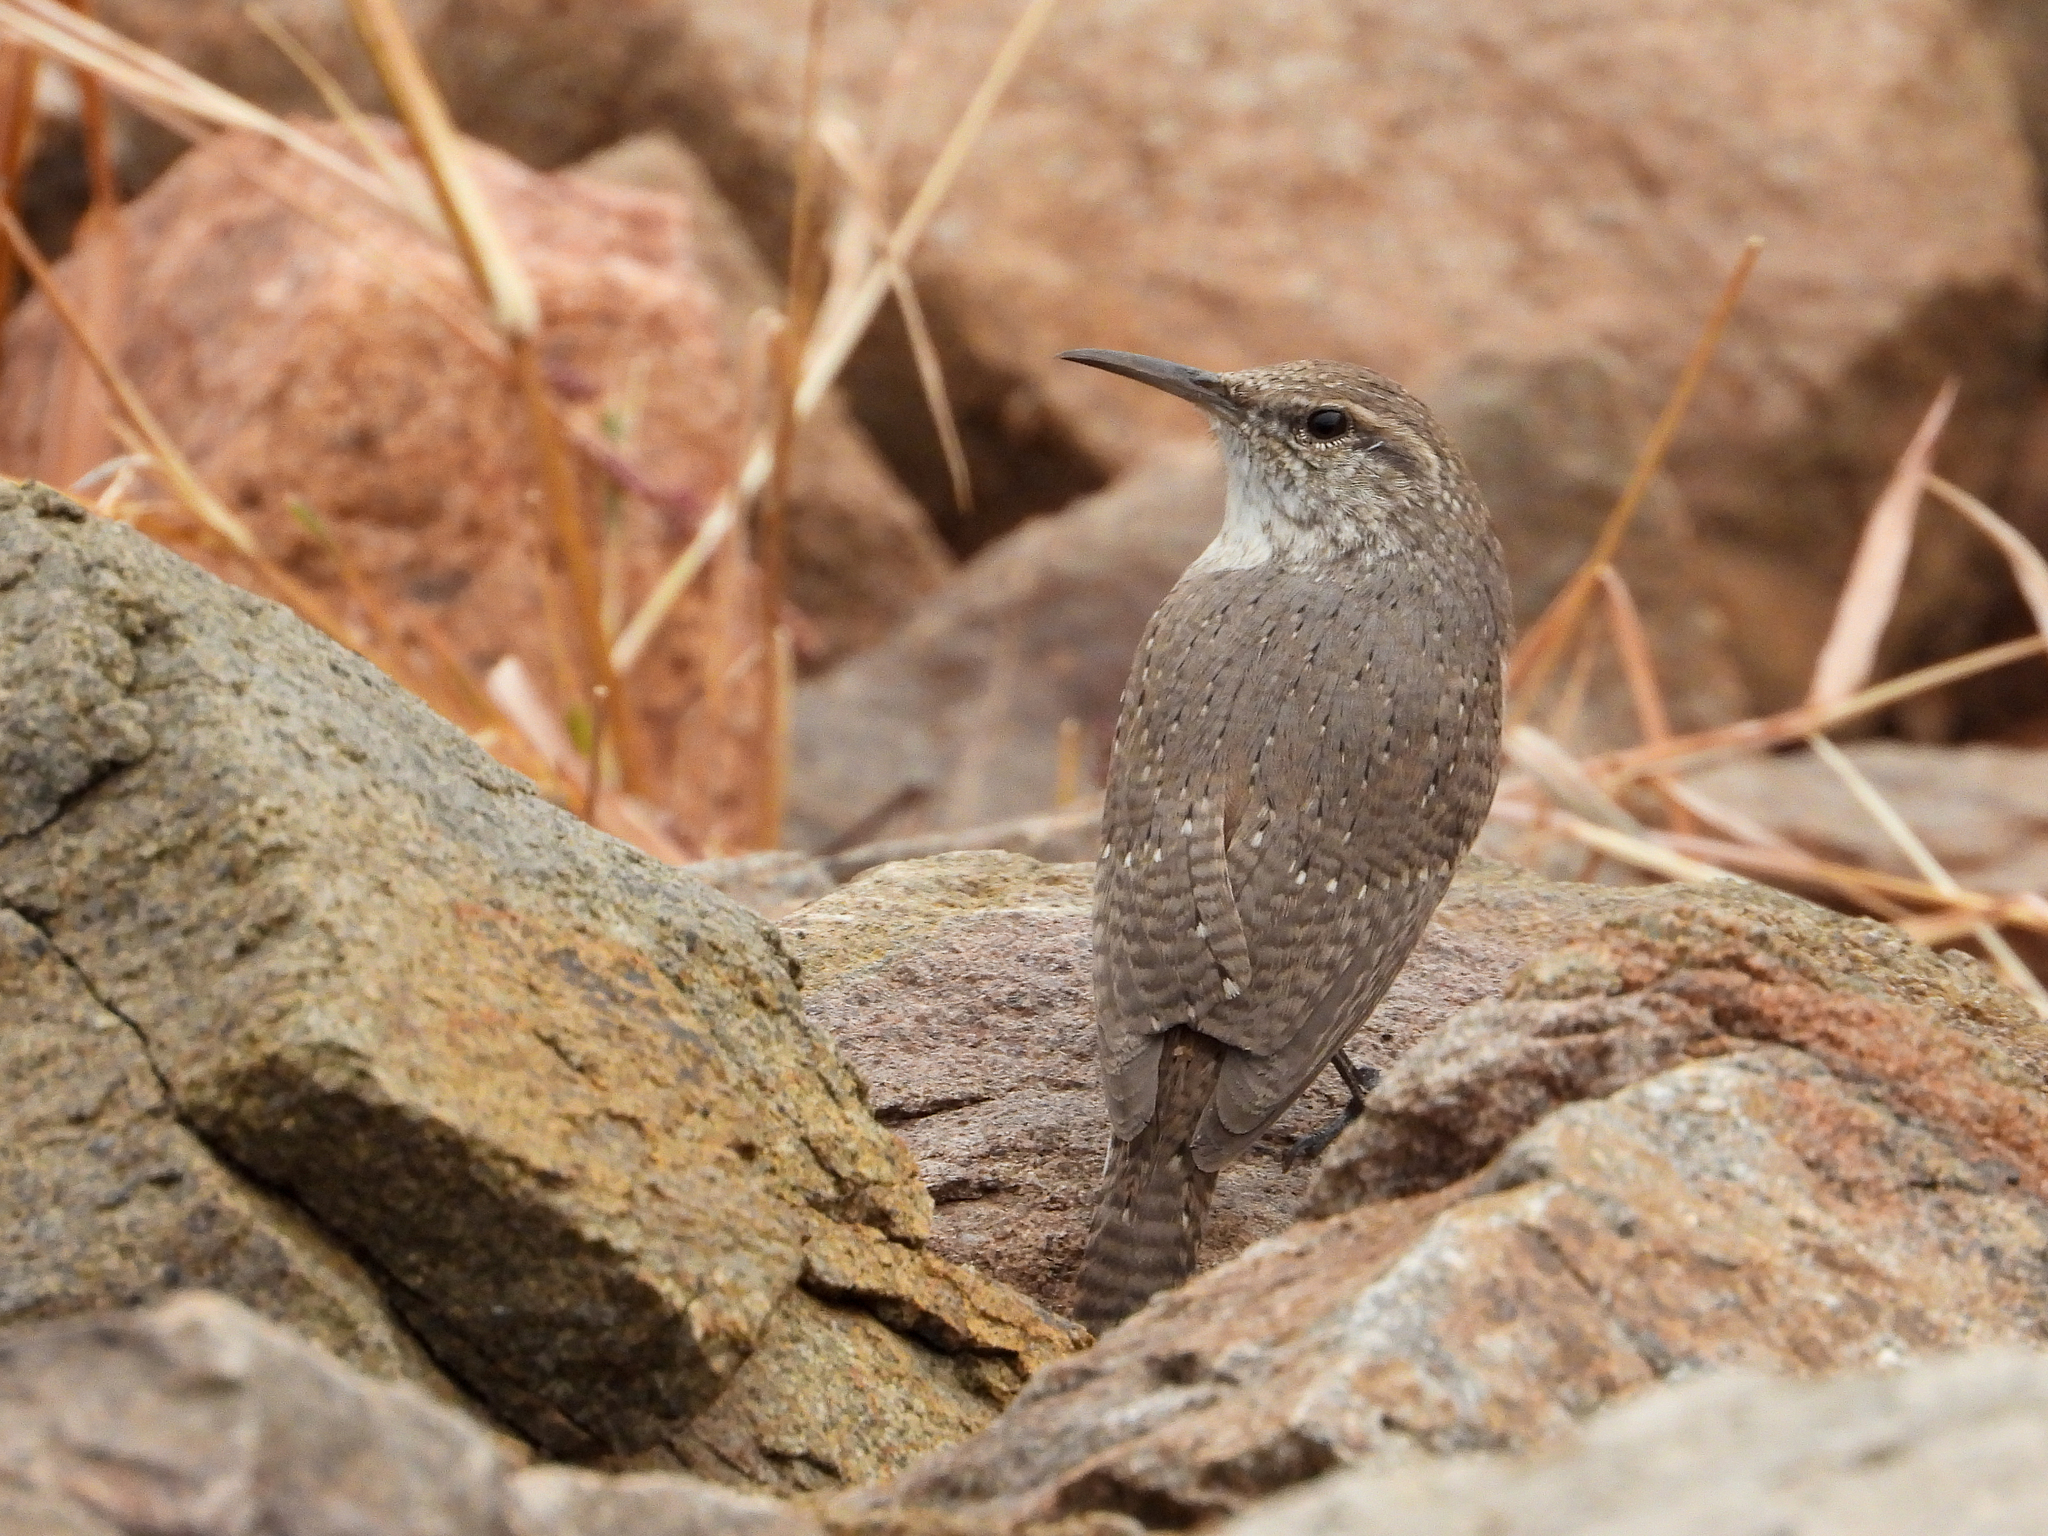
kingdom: Animalia
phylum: Chordata
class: Aves
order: Passeriformes
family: Troglodytidae
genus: Salpinctes
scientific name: Salpinctes obsoletus
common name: Rock wren
